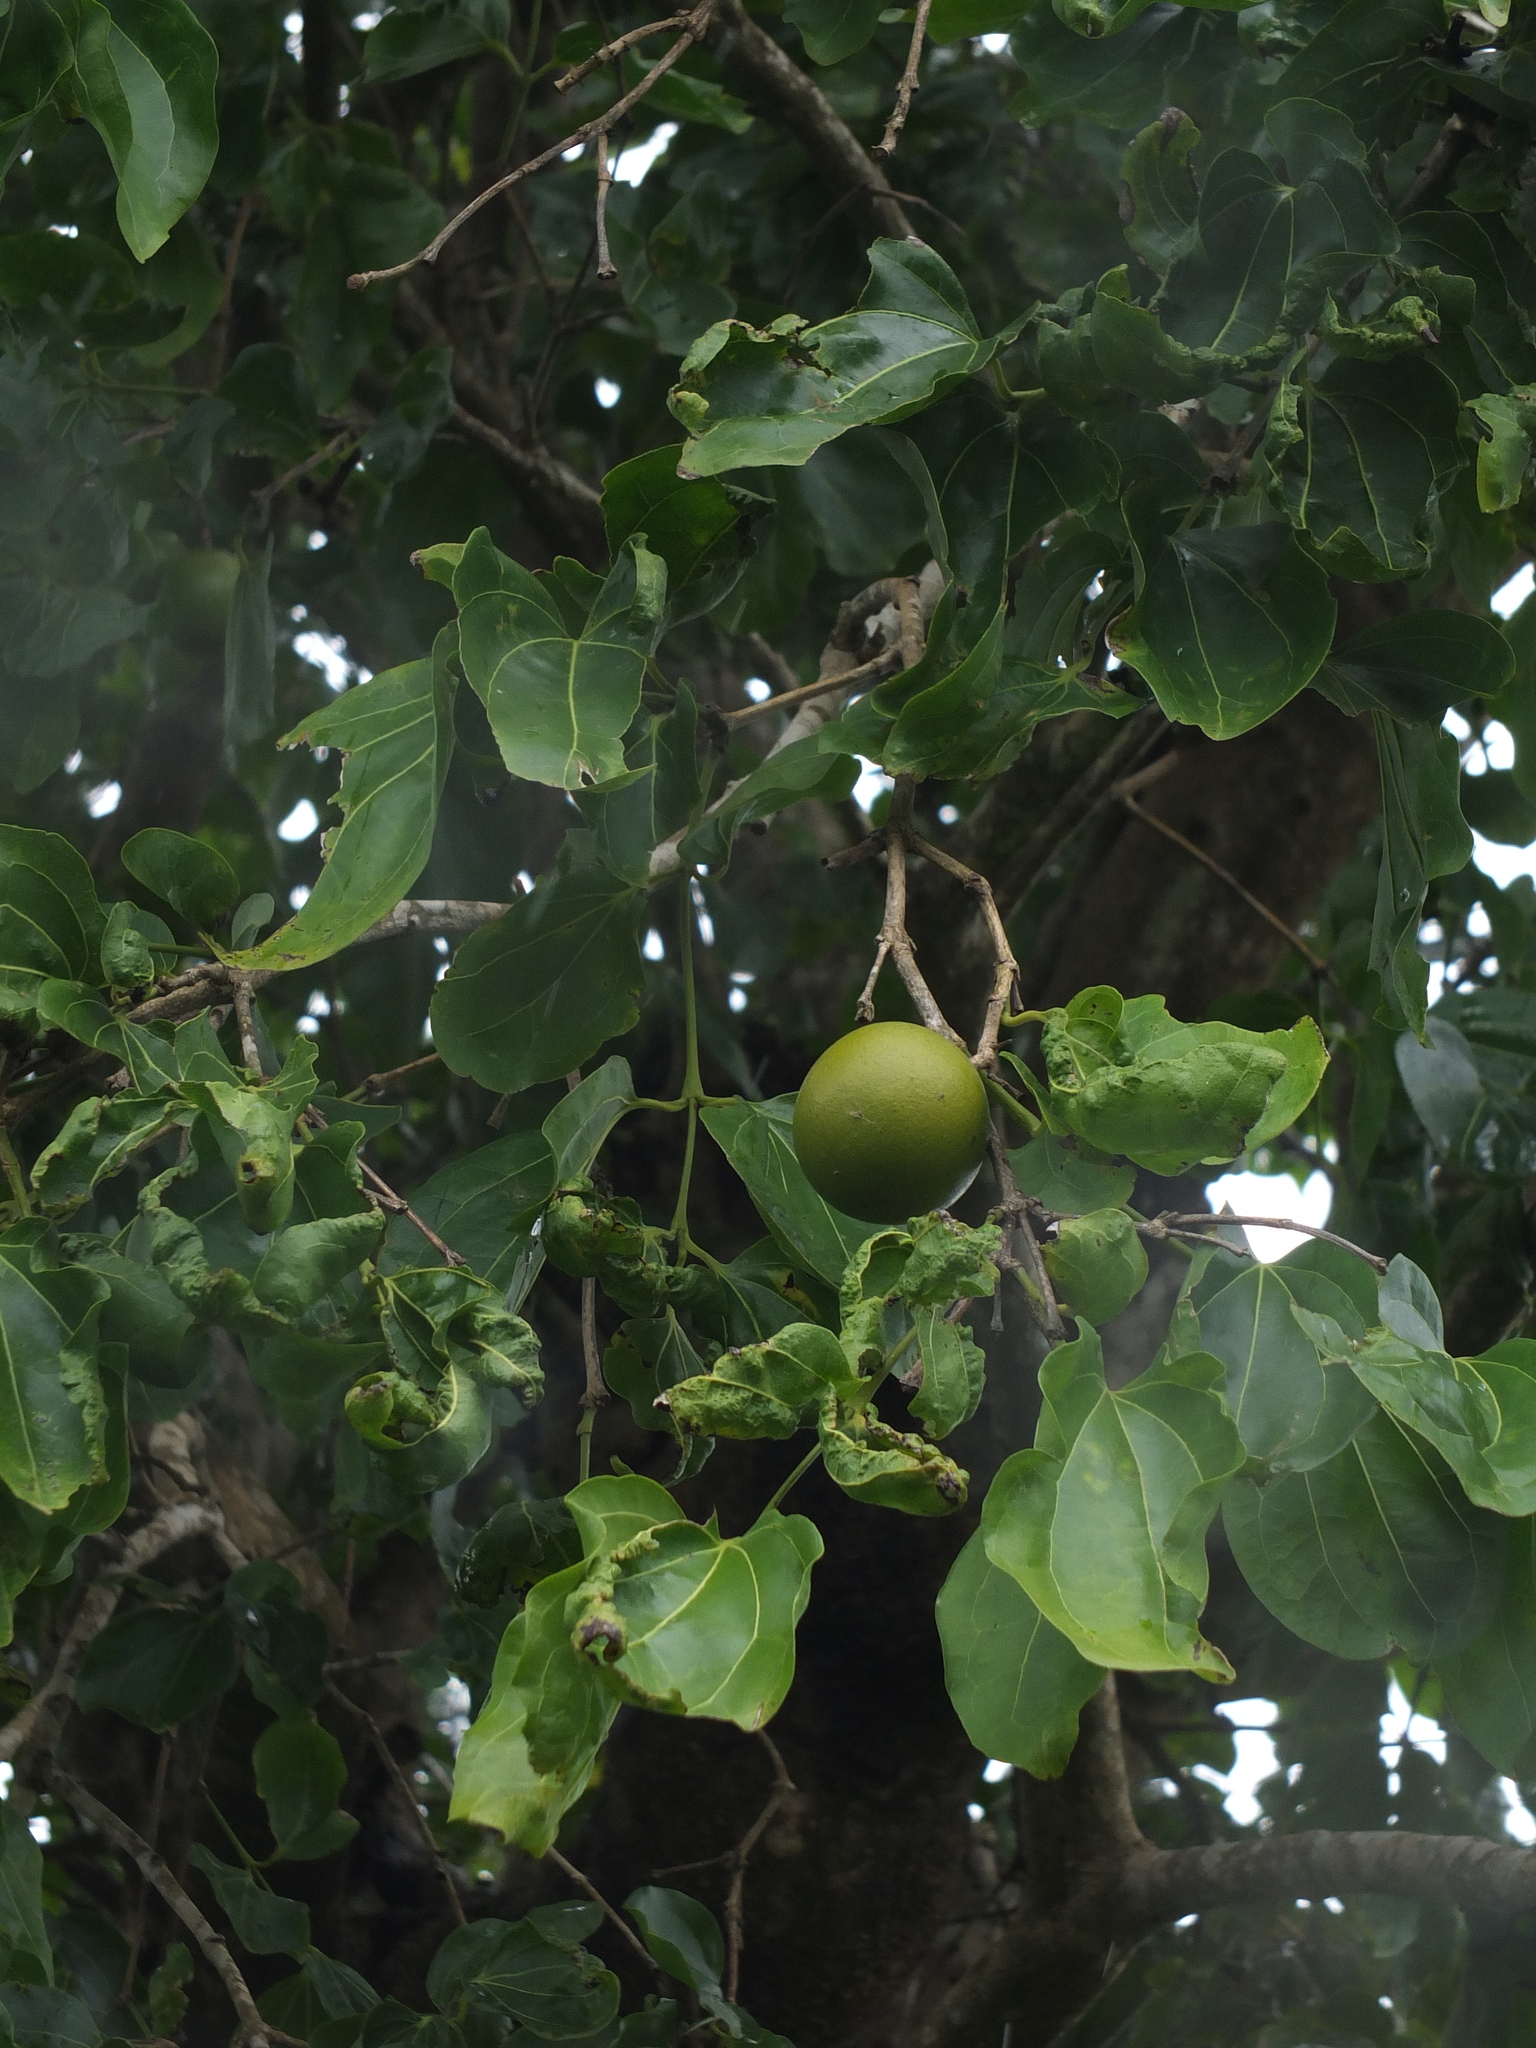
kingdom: Plantae
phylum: Tracheophyta
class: Magnoliopsida
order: Gentianales
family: Loganiaceae
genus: Strychnos
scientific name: Strychnos nux-vomica
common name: Strychninetree
